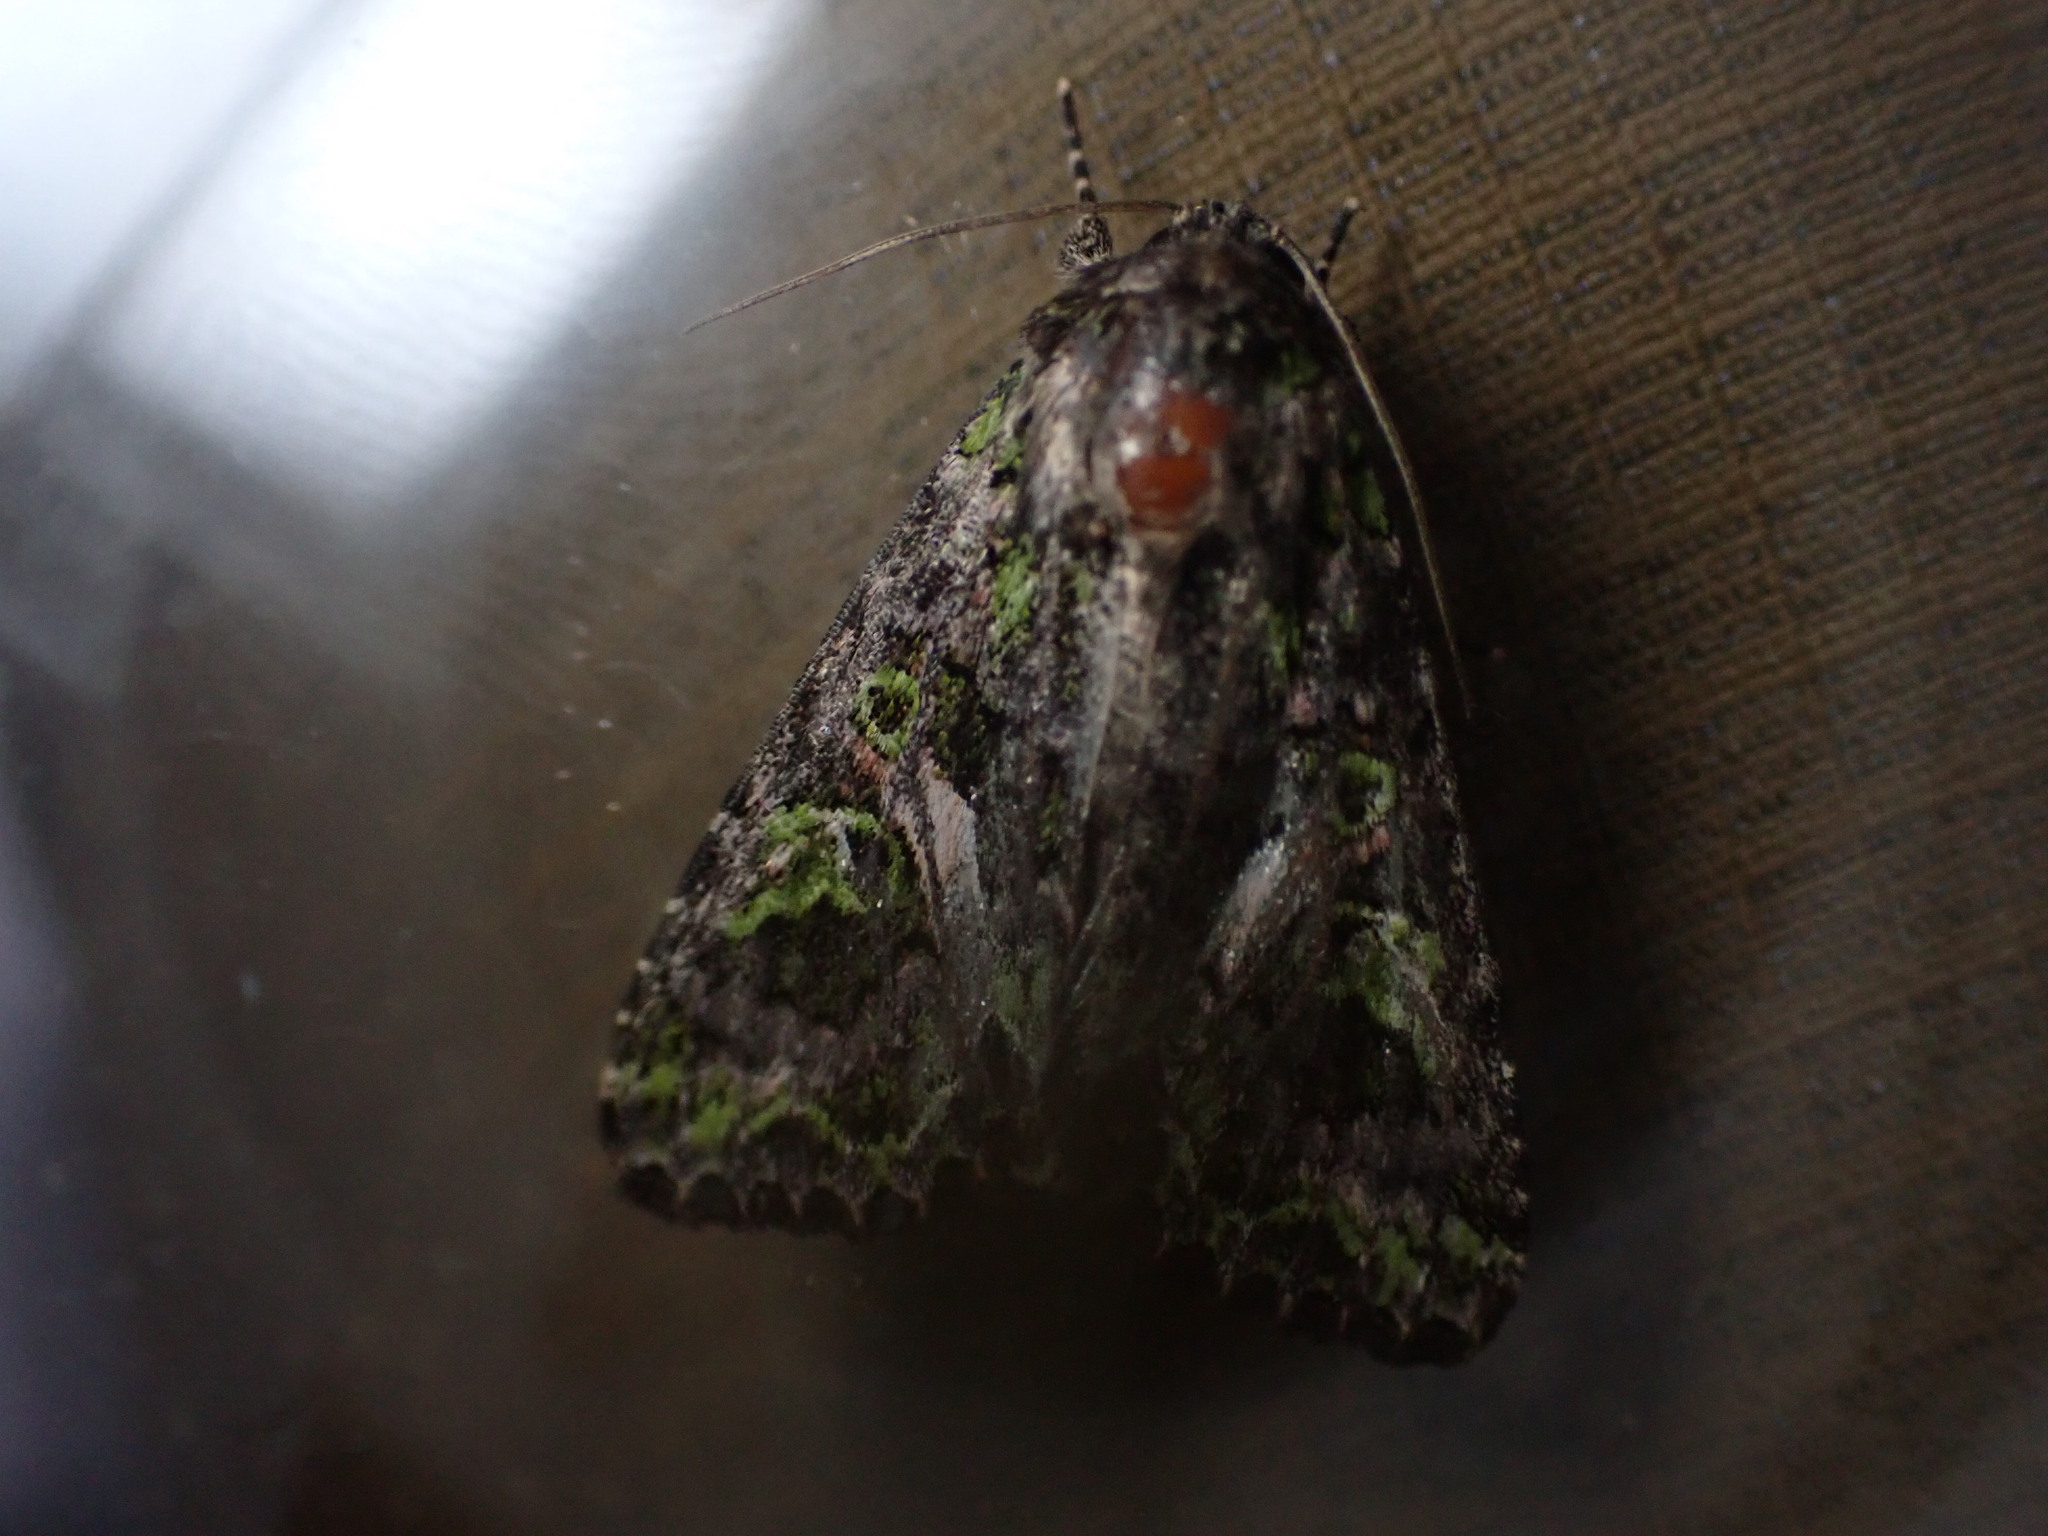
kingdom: Animalia
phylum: Arthropoda
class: Insecta
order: Lepidoptera
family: Noctuidae
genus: Trachea
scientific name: Trachea atriplicis
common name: Orache moth
